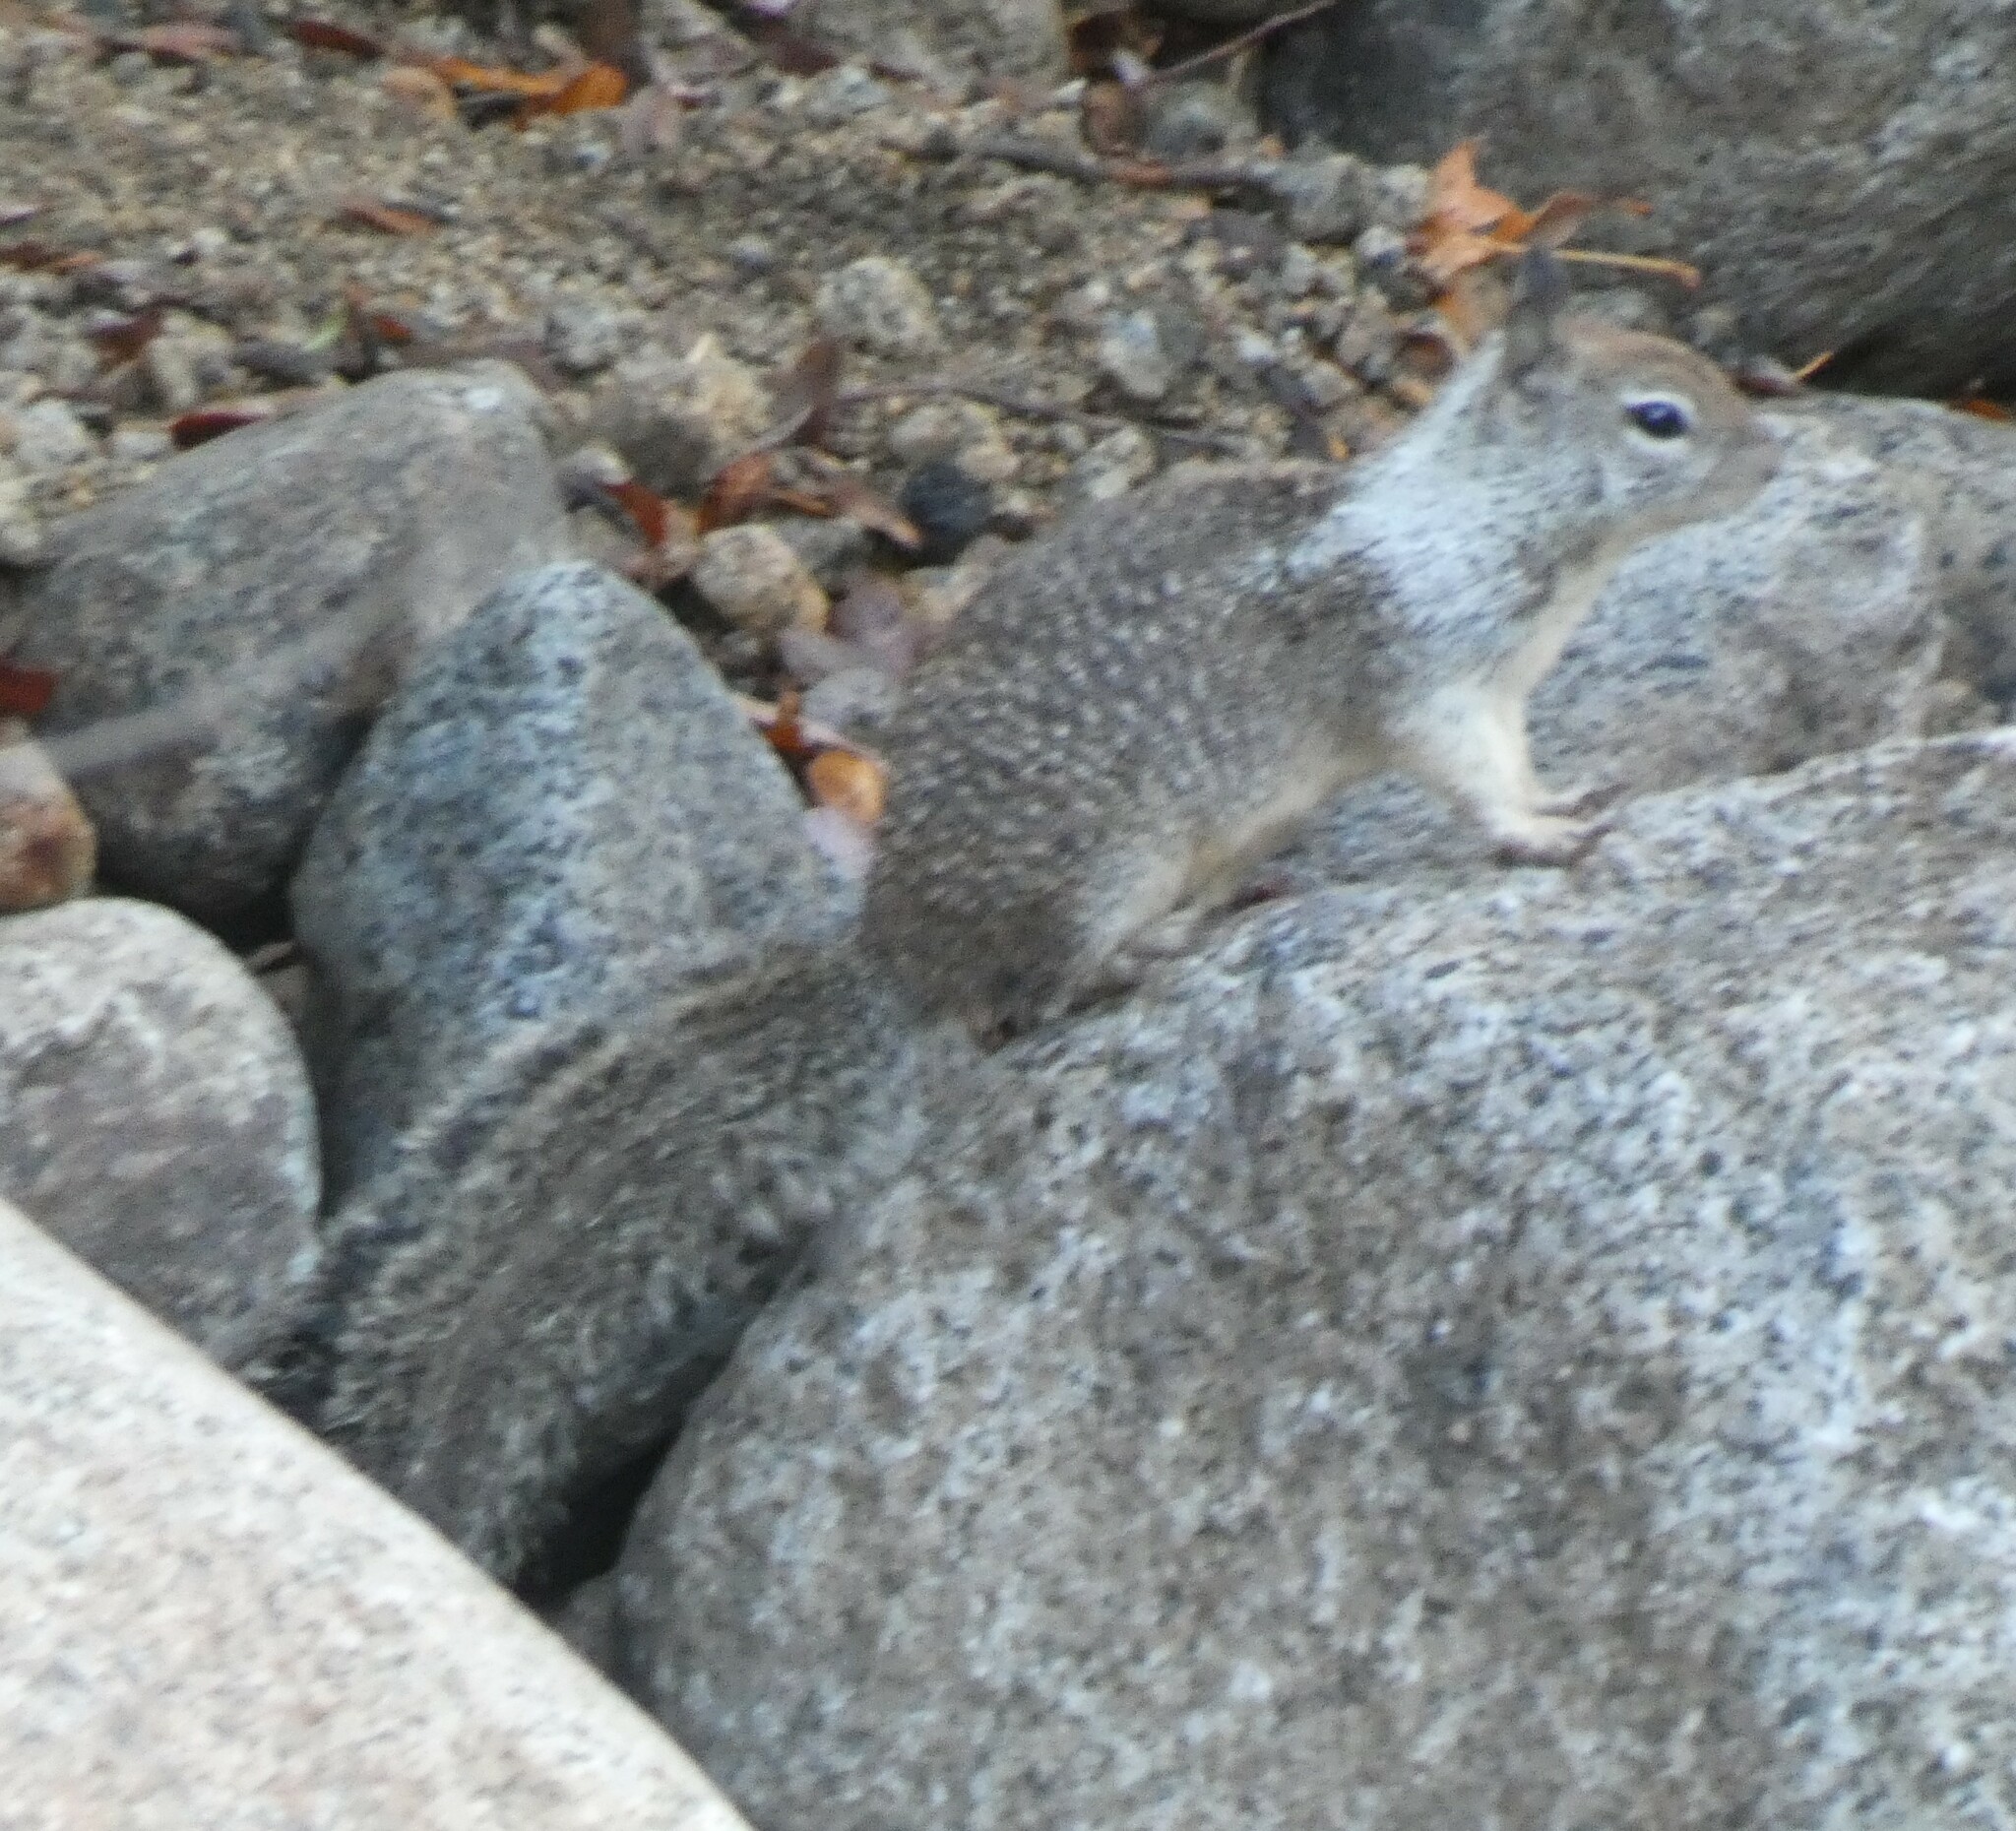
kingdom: Animalia
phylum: Chordata
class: Mammalia
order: Rodentia
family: Sciuridae
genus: Otospermophilus
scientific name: Otospermophilus beecheyi
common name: California ground squirrel
